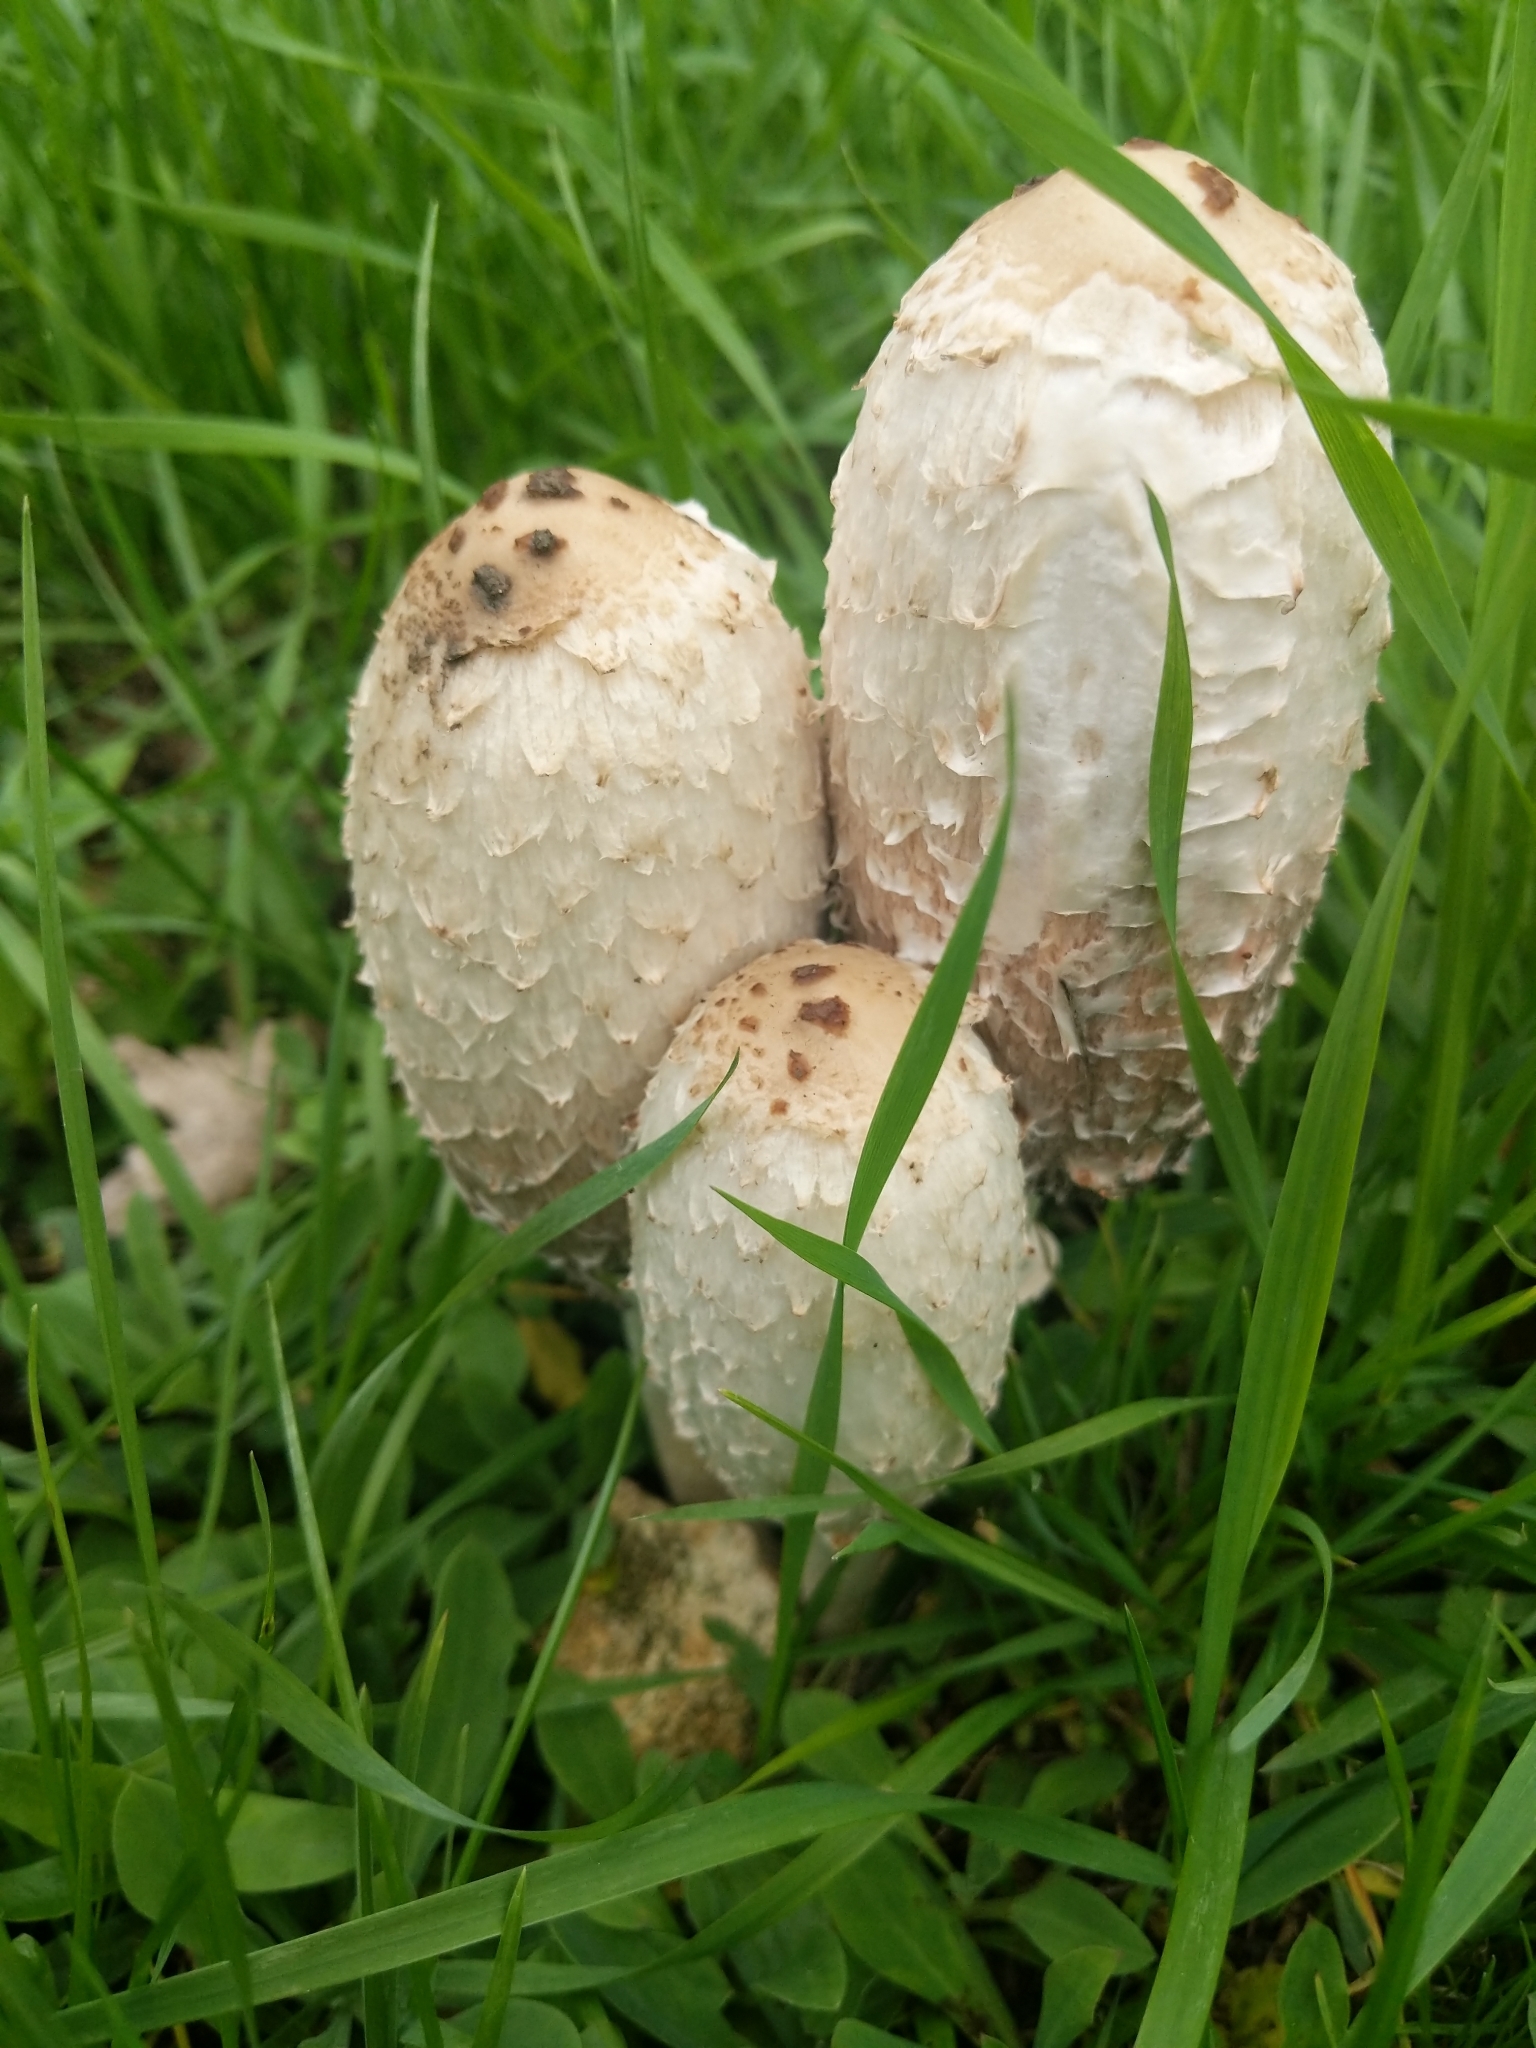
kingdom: Fungi
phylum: Basidiomycota
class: Agaricomycetes
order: Agaricales
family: Agaricaceae
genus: Coprinus
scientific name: Coprinus comatus
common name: Lawyer's wig
